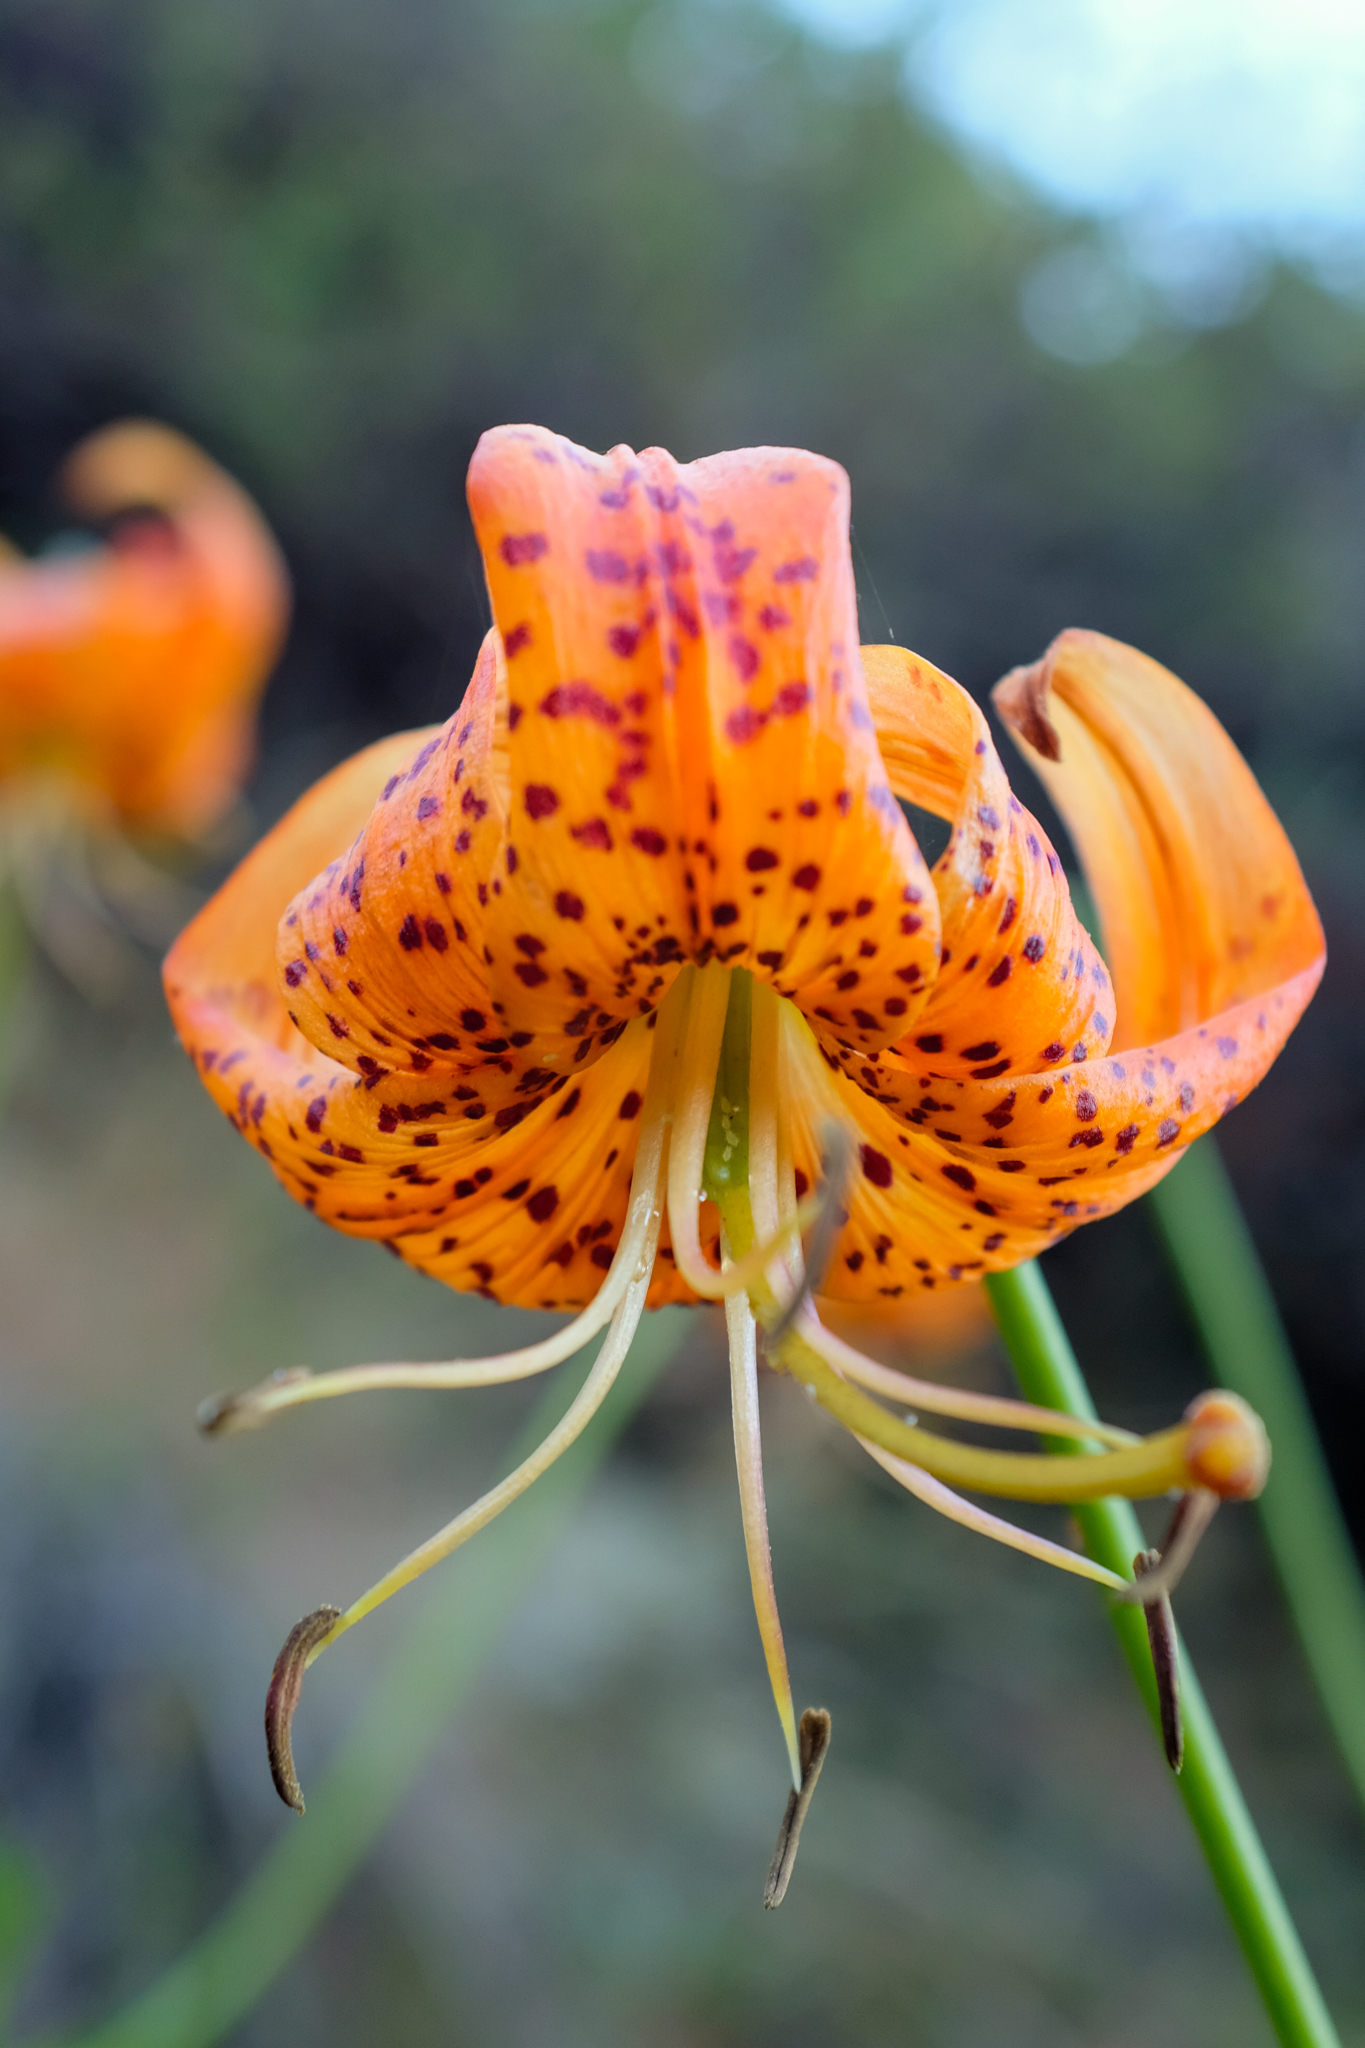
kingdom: Plantae
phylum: Tracheophyta
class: Liliopsida
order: Liliales
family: Liliaceae
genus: Lilium
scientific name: Lilium pardalinum
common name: Panther lily
